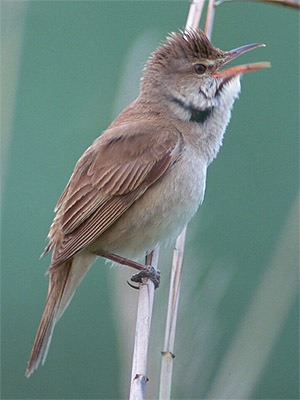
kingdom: Animalia
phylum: Chordata
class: Aves
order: Passeriformes
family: Acrocephalidae
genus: Acrocephalus
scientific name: Acrocephalus orientalis
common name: Oriental reed warbler
